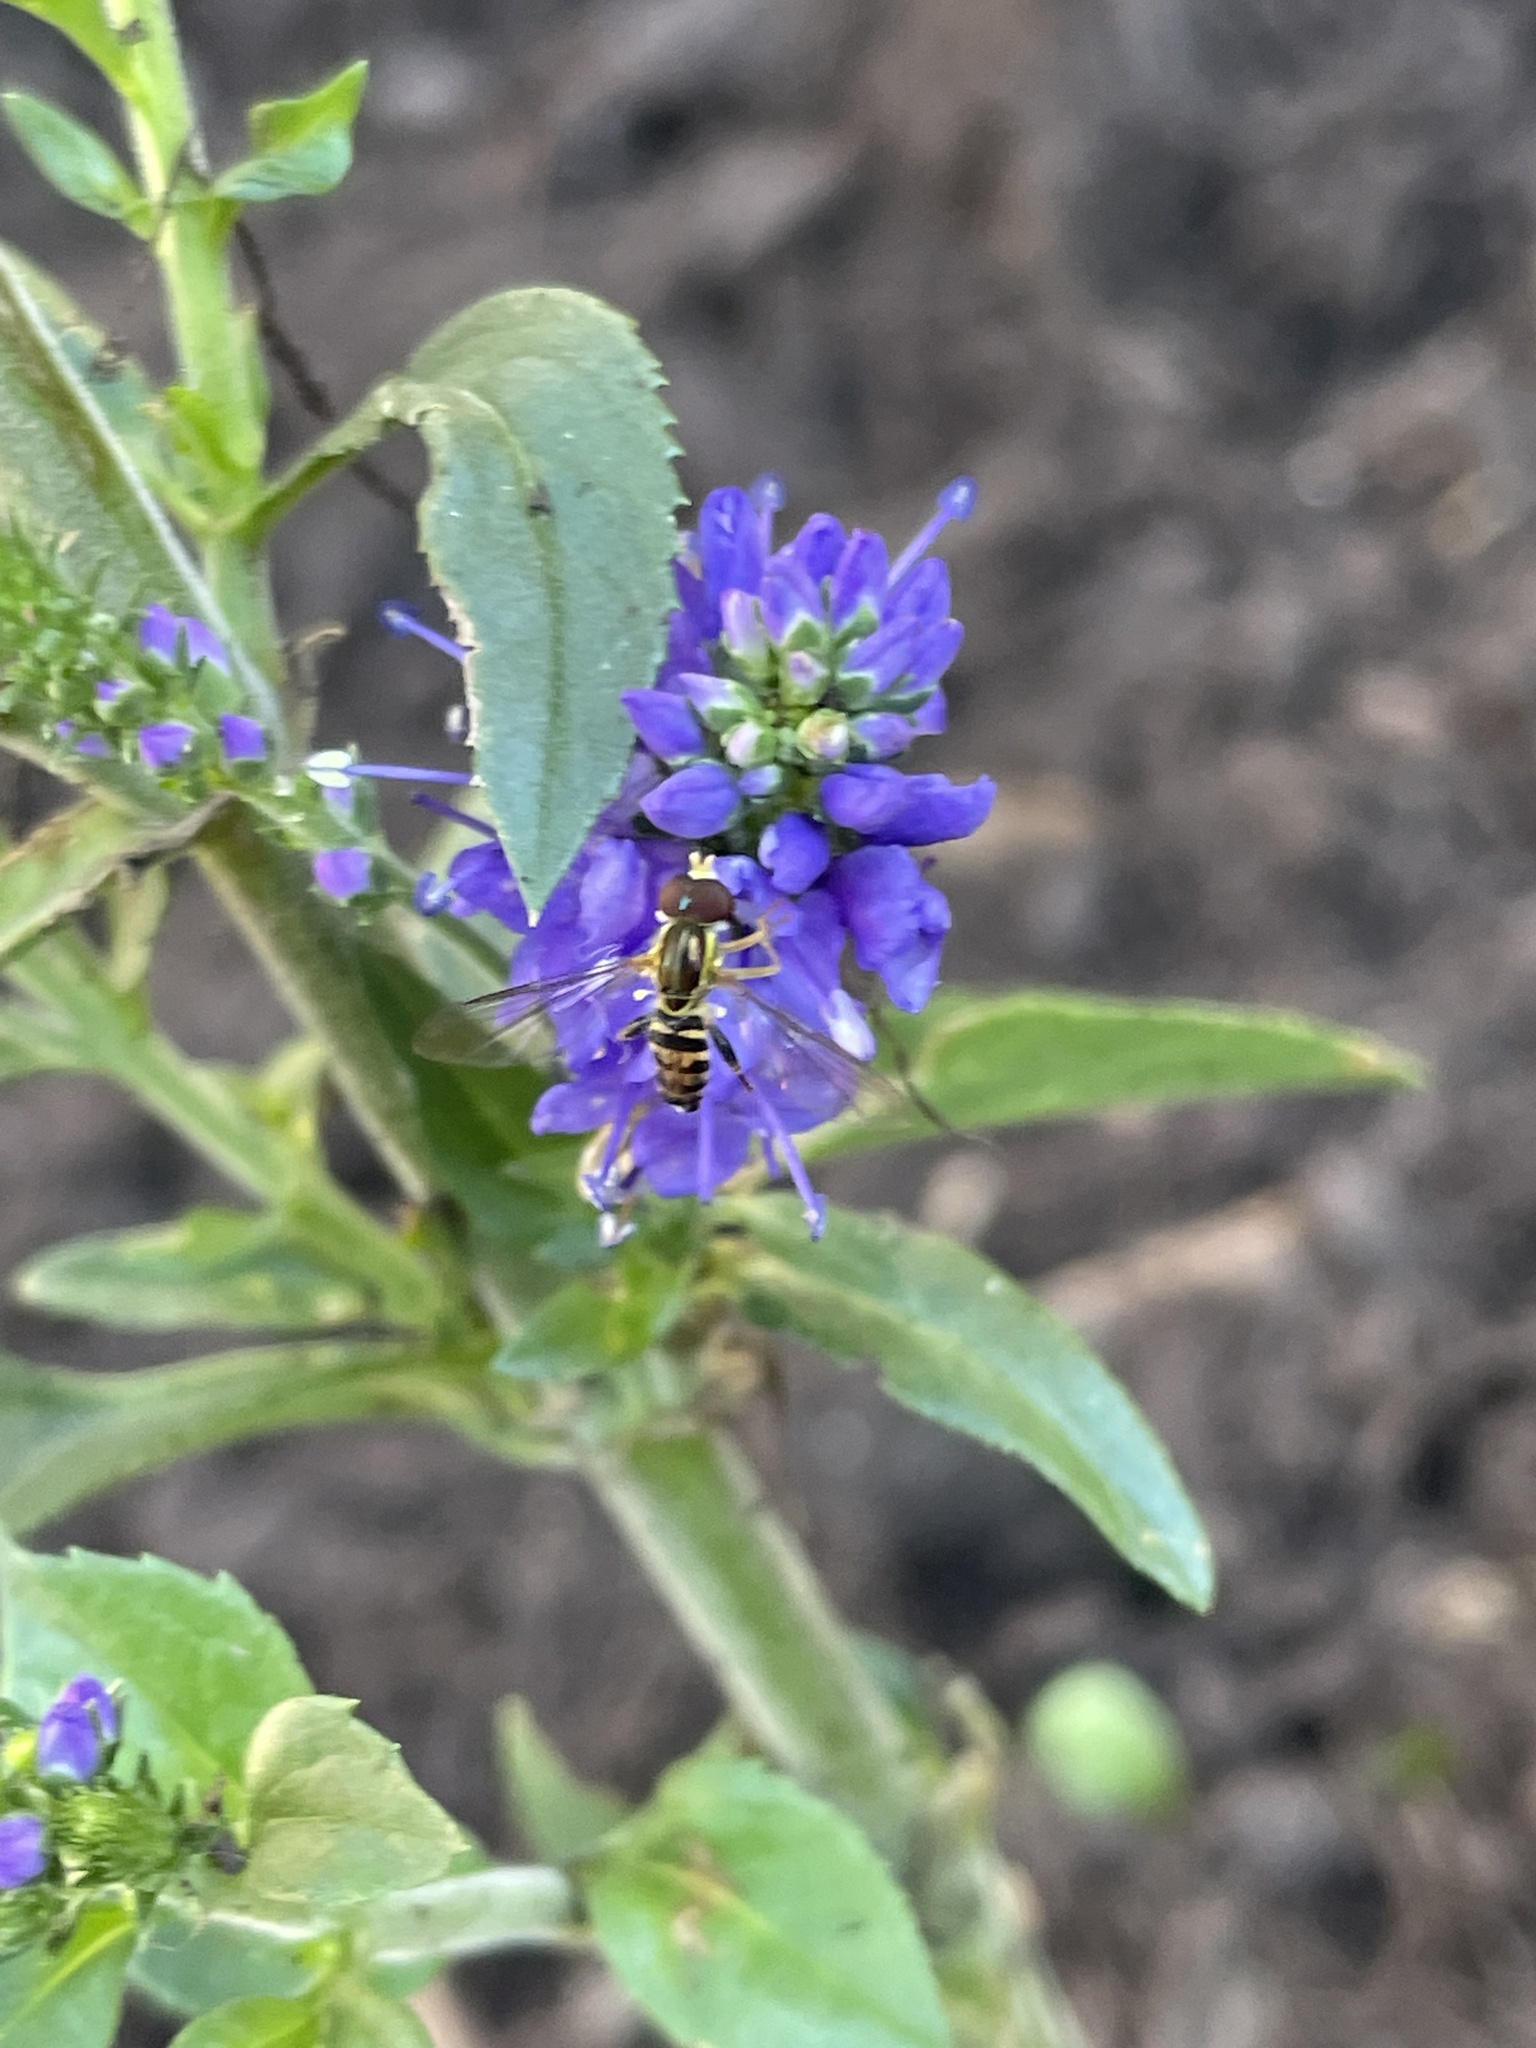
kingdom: Animalia
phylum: Arthropoda
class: Insecta
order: Diptera
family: Syrphidae
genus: Toxomerus
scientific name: Toxomerus geminatus
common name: Eastern calligrapher
